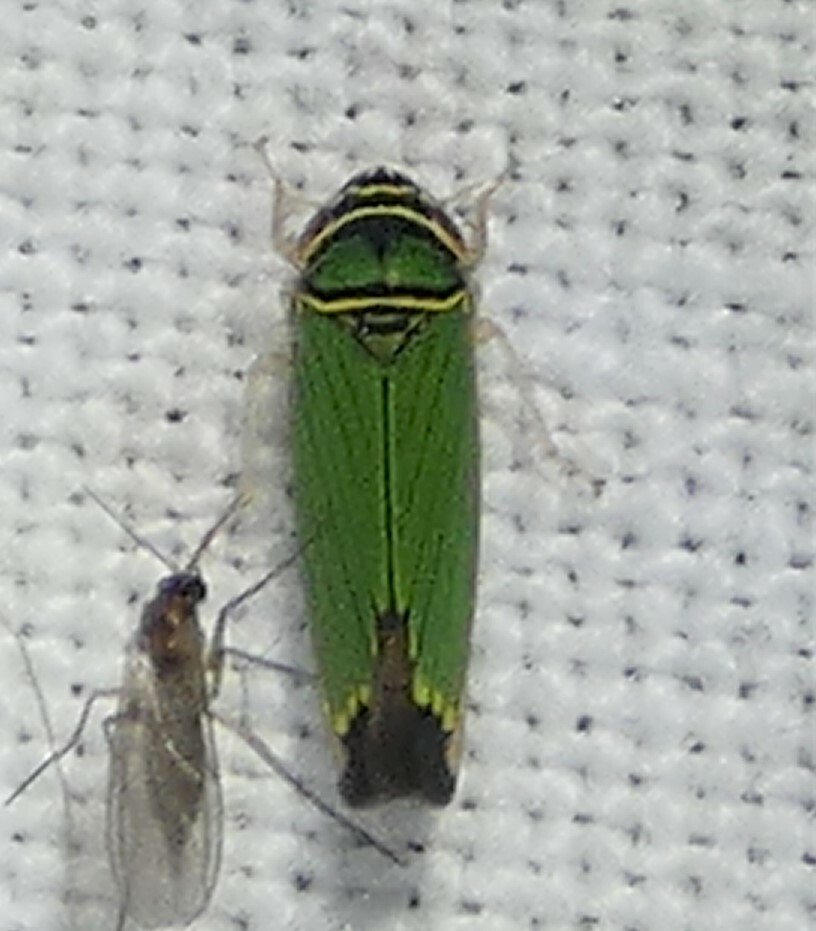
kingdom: Animalia
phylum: Arthropoda
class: Insecta
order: Hemiptera
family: Cicadellidae
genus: Tylozygus
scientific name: Tylozygus geometricus
